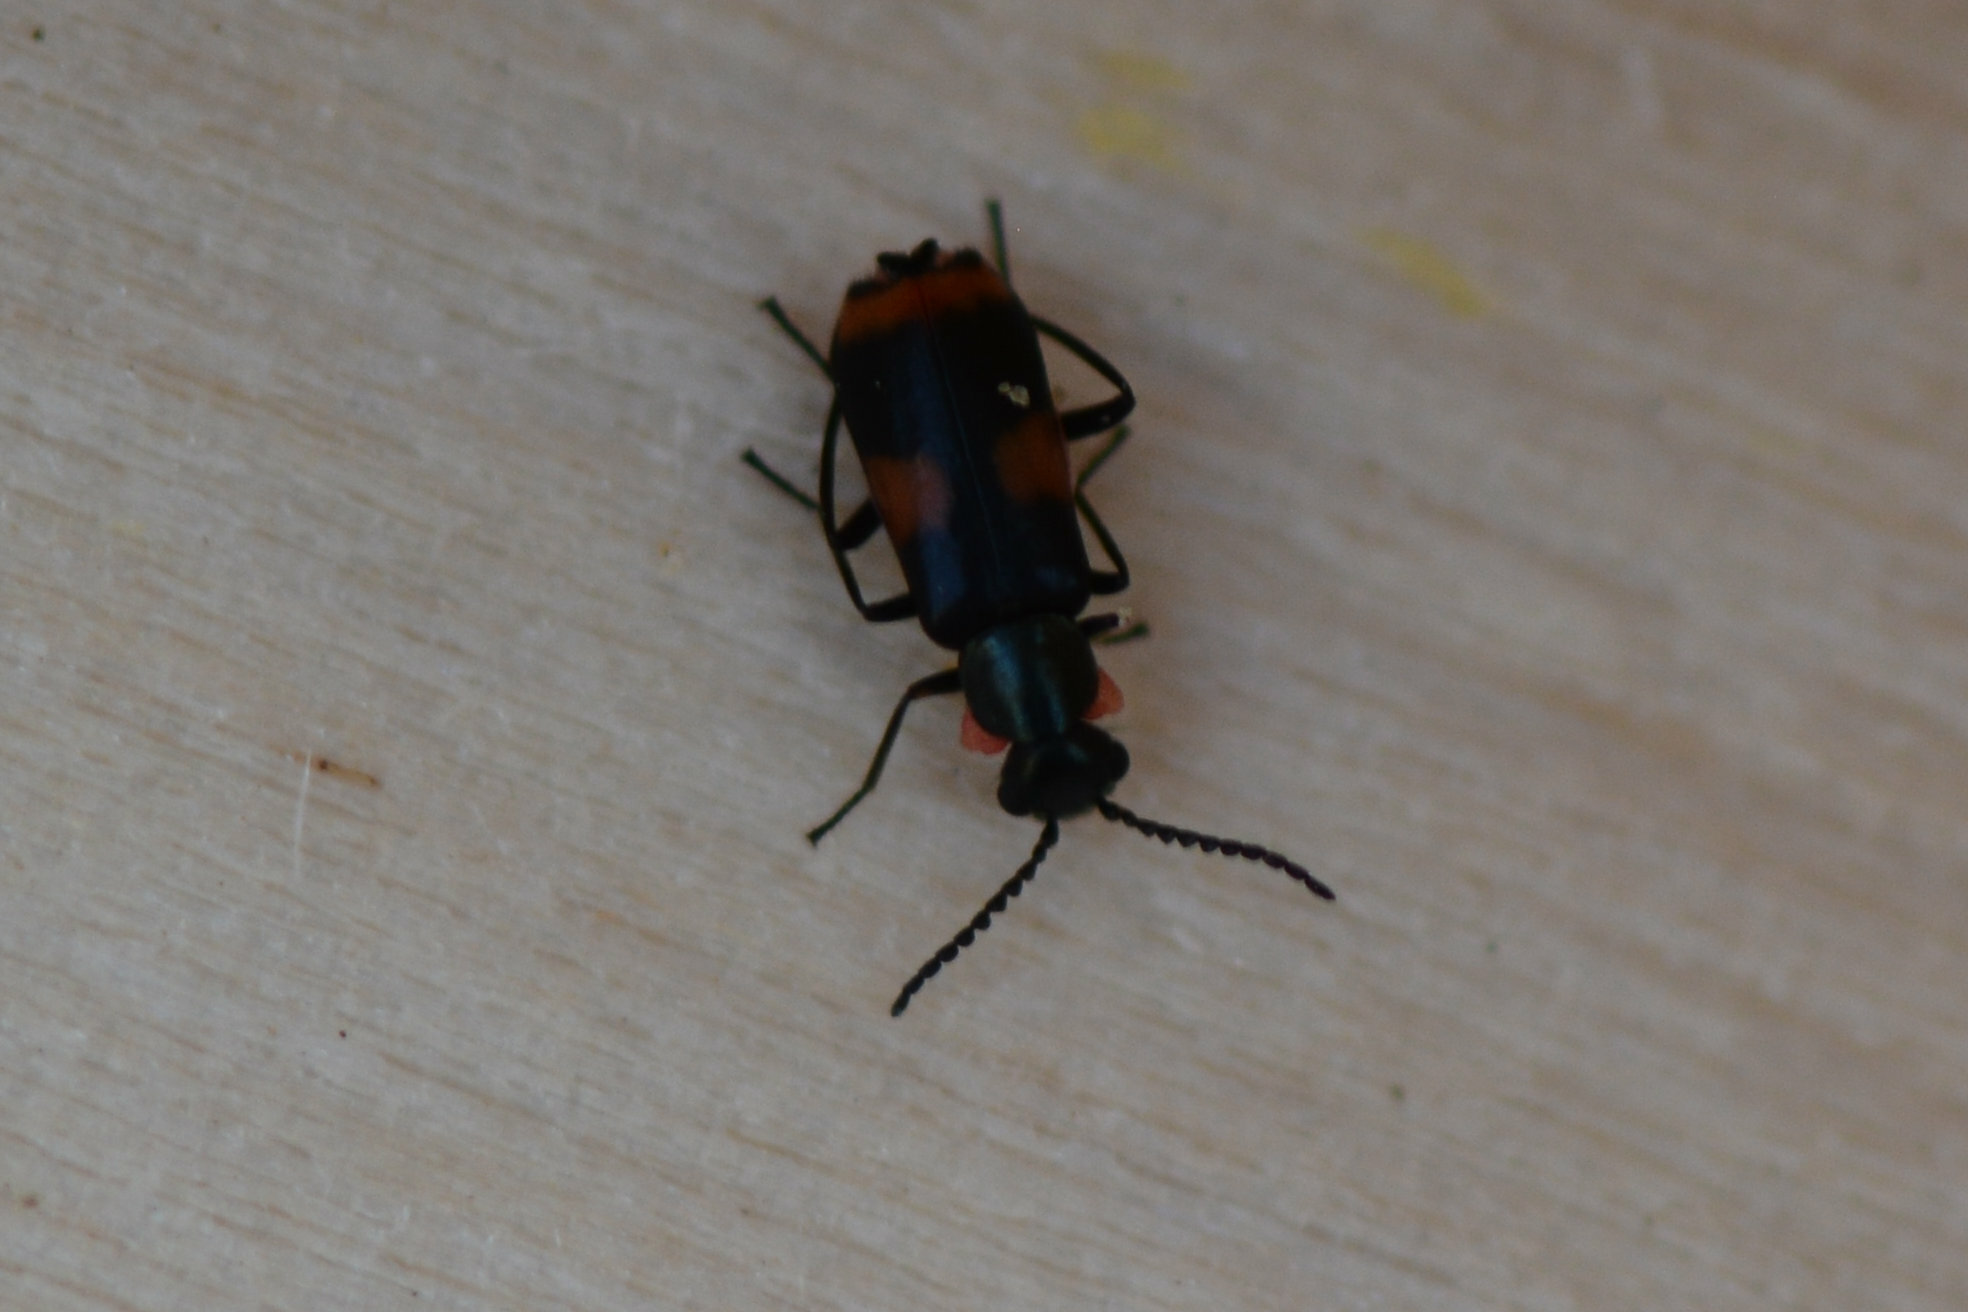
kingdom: Animalia
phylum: Arthropoda
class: Insecta
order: Coleoptera
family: Melyridae
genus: Anthocomus
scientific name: Anthocomus fasciatus
